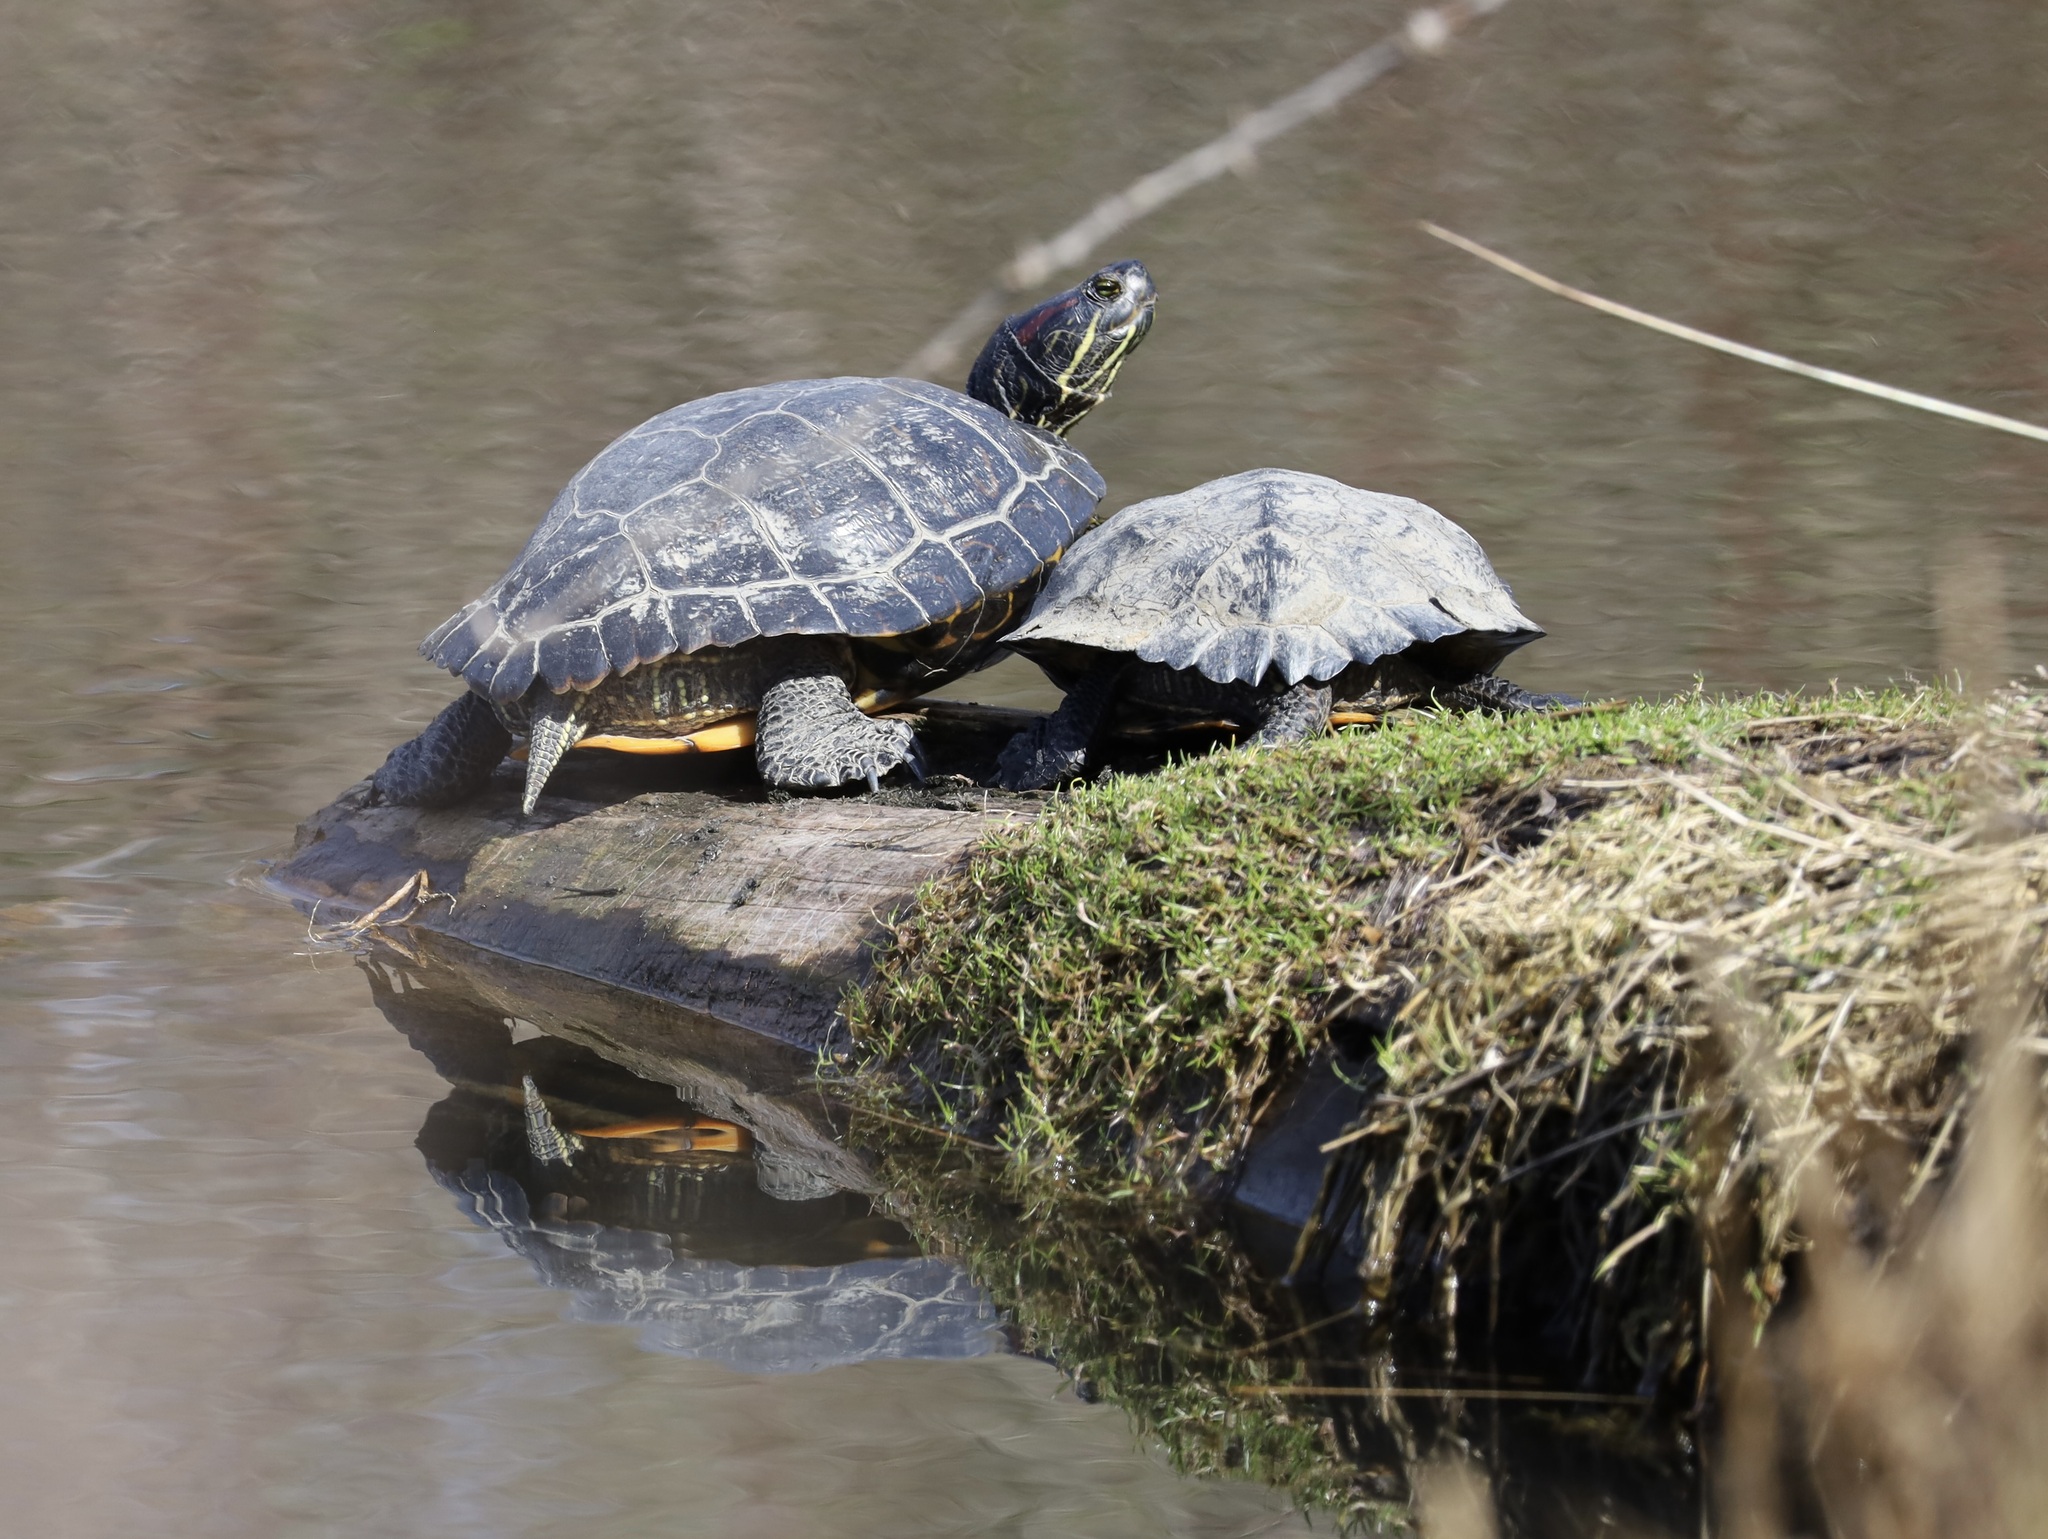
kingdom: Animalia
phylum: Chordata
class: Testudines
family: Emydidae
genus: Trachemys
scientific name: Trachemys scripta
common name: Slider
